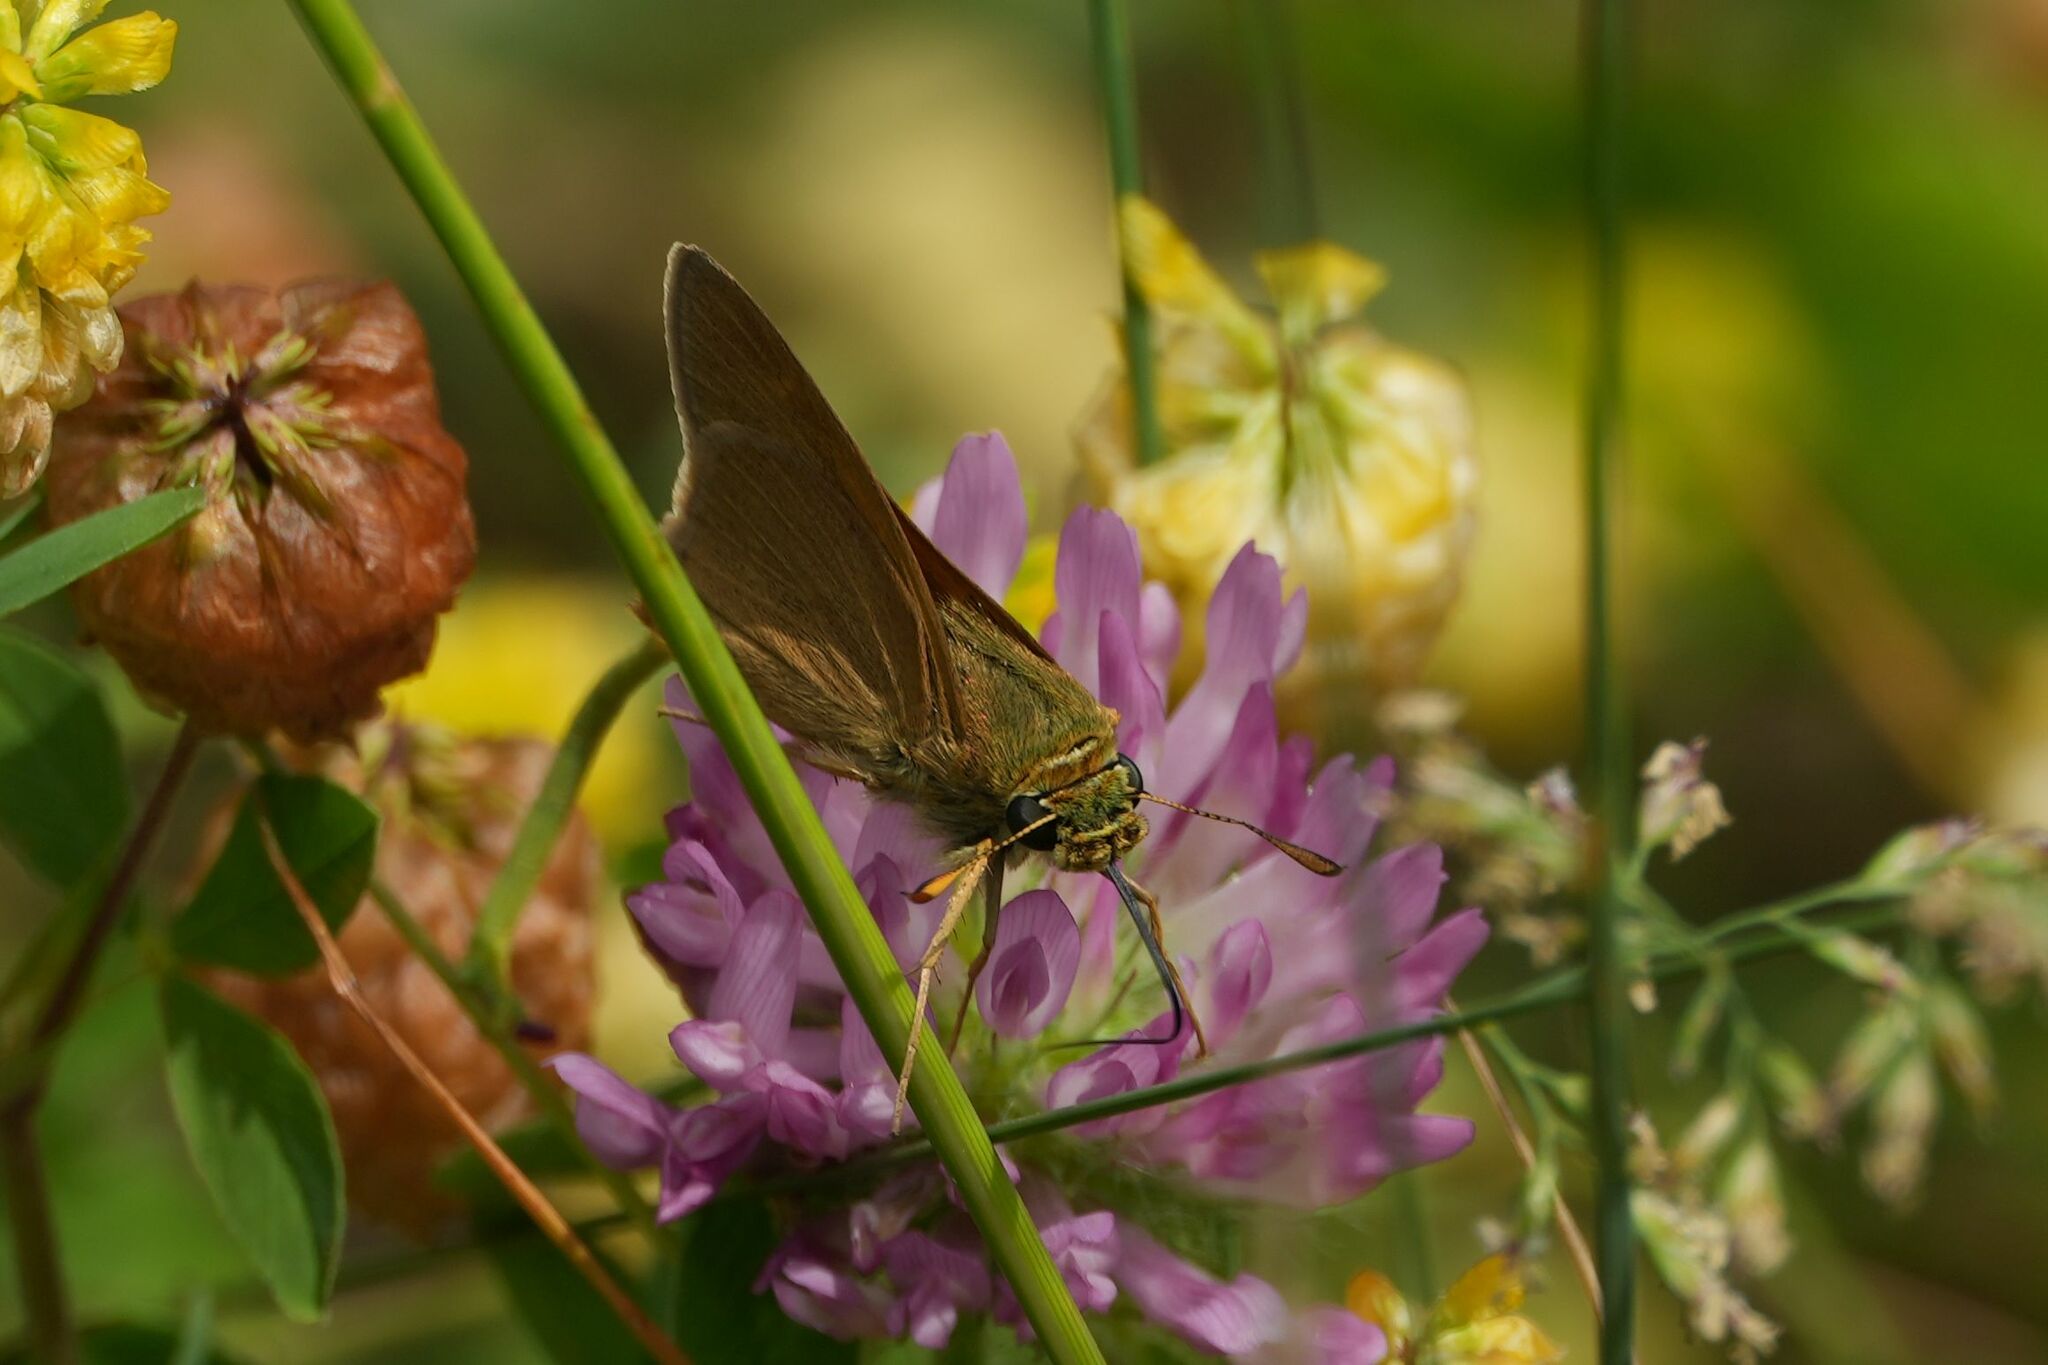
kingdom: Animalia
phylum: Arthropoda
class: Insecta
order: Lepidoptera
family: Hesperiidae
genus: Polites
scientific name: Polites origenes
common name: Crossline skipper
